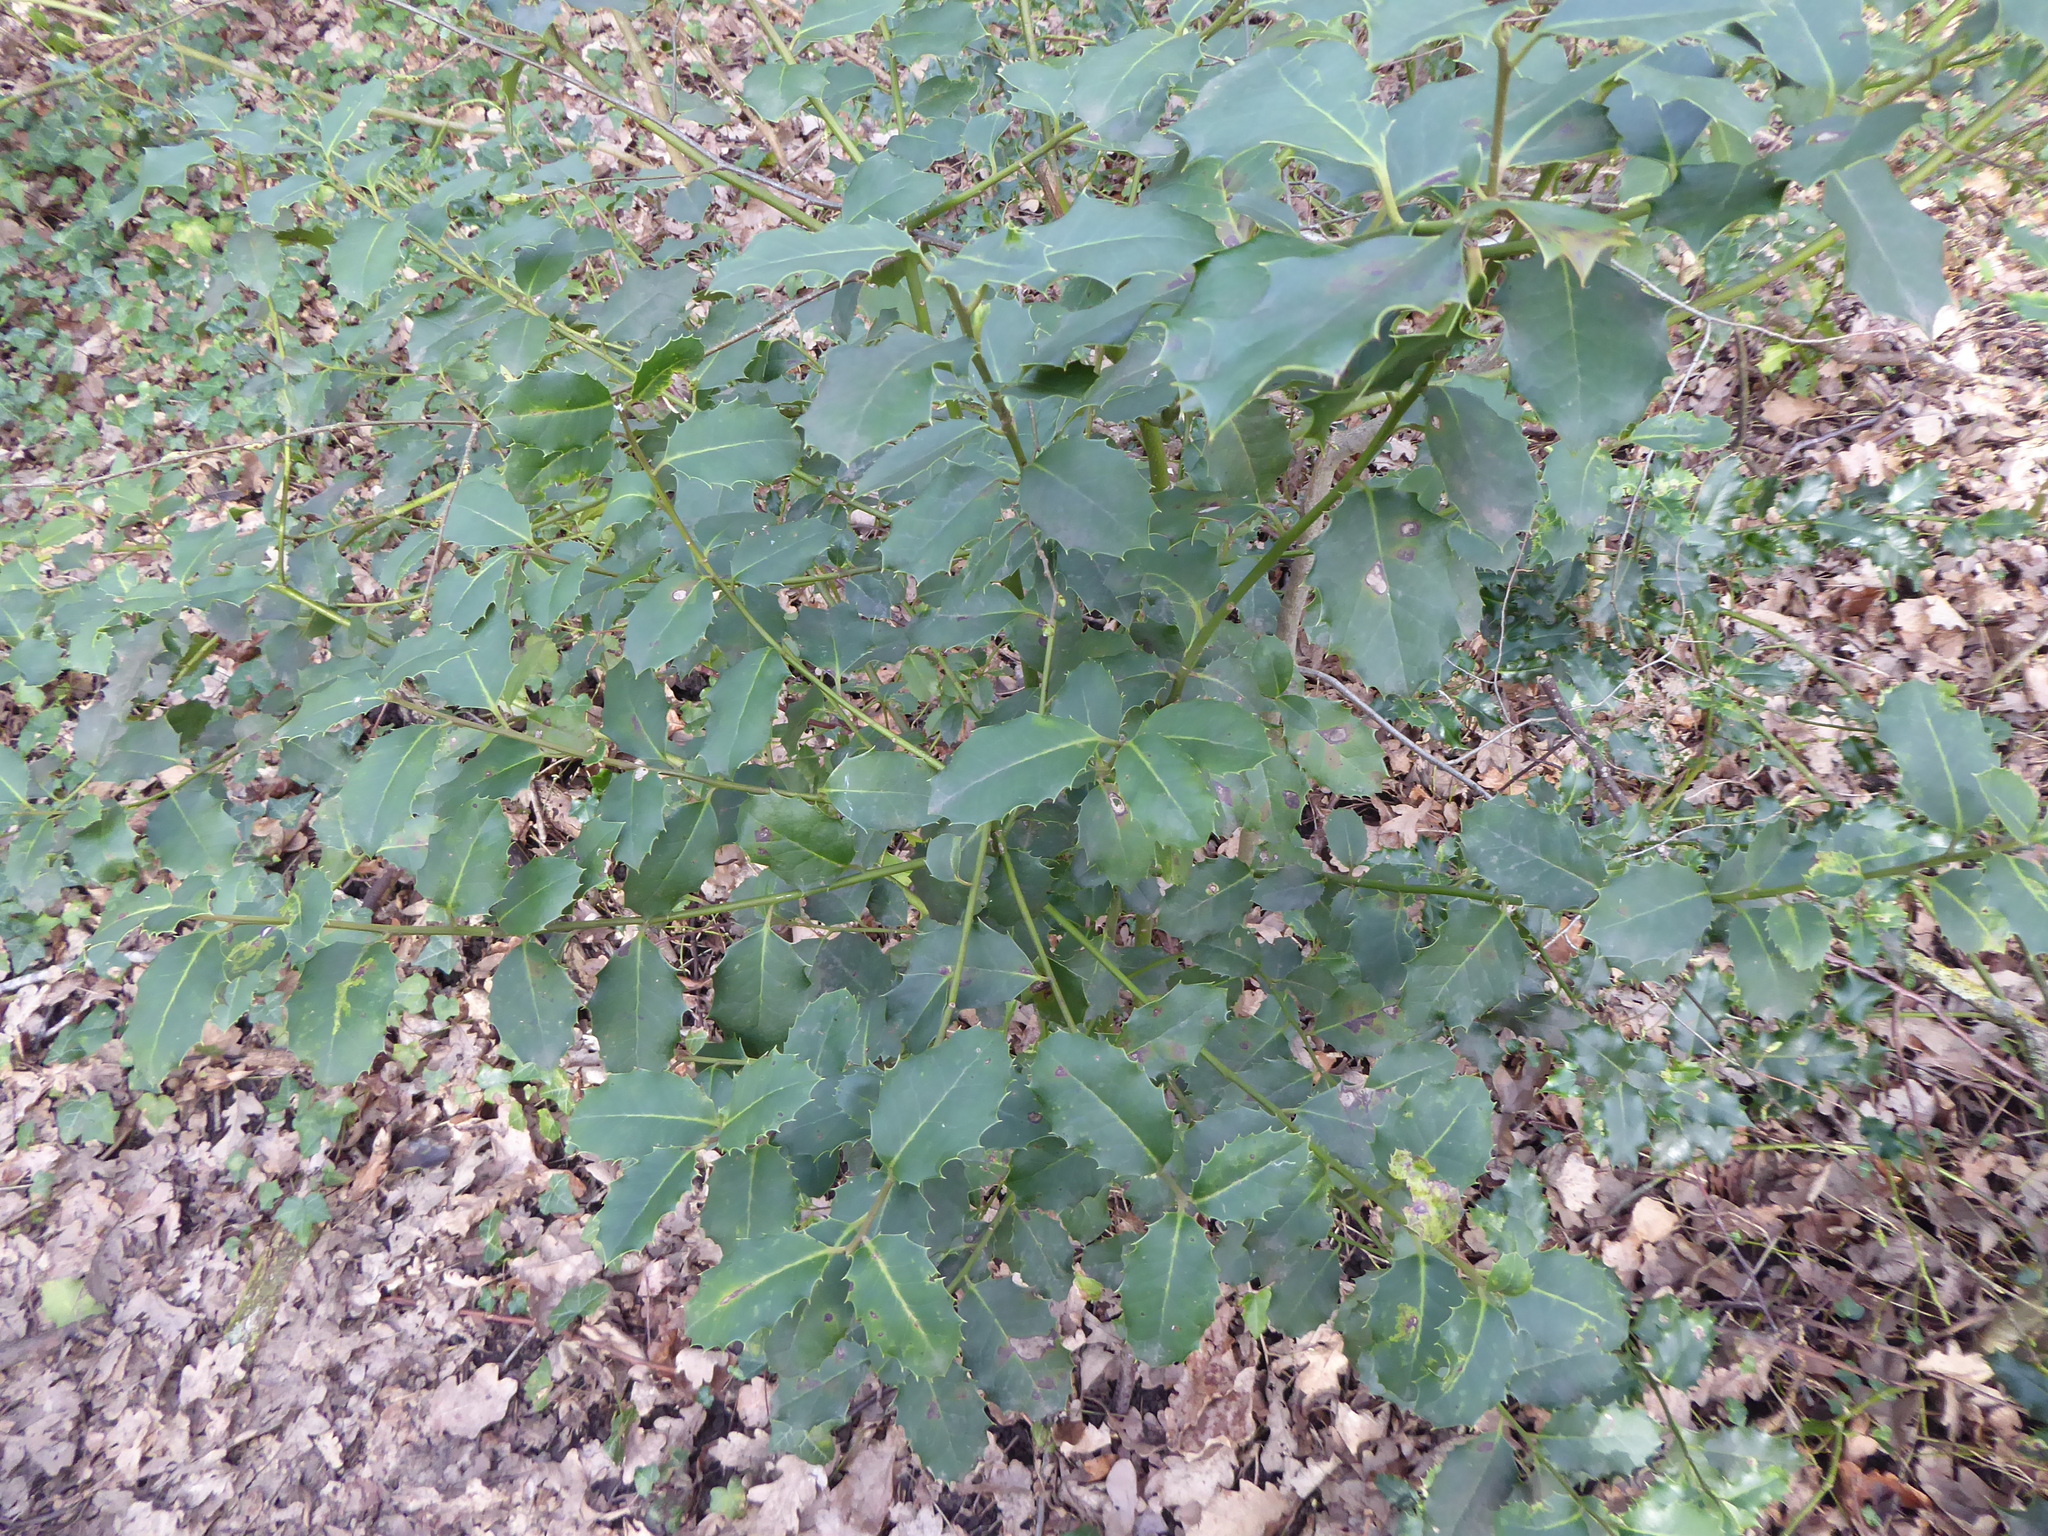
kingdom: Plantae
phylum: Tracheophyta
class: Magnoliopsida
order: Aquifoliales
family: Aquifoliaceae
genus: Ilex
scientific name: Ilex aquifolium
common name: English holly
